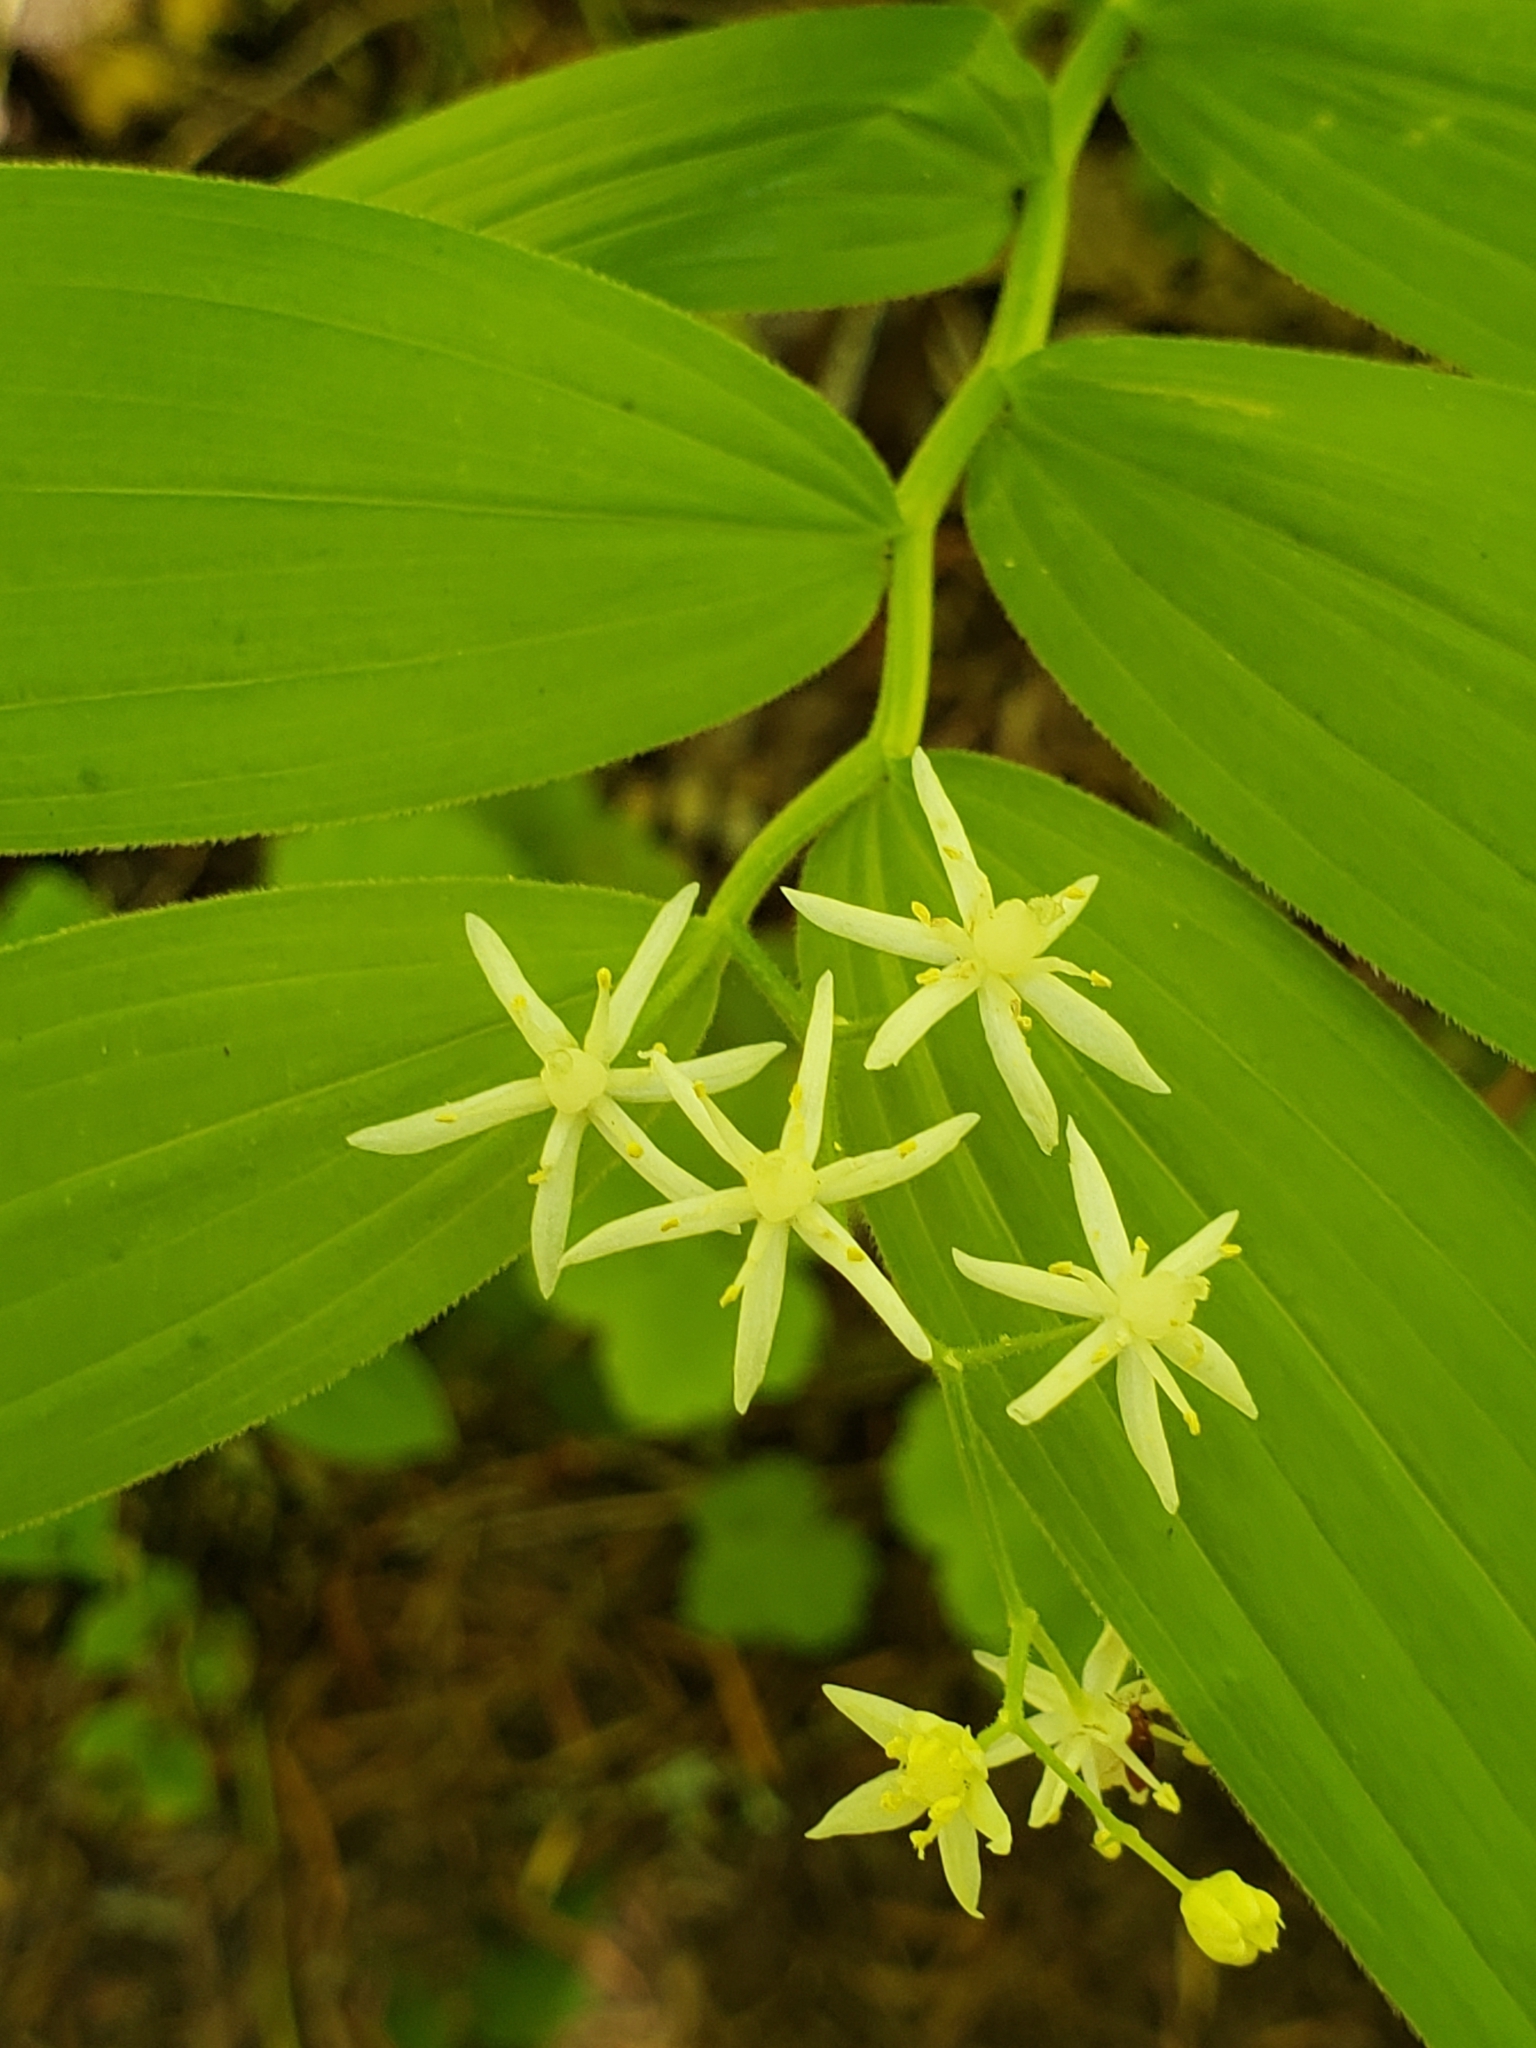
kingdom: Plantae
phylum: Tracheophyta
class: Liliopsida
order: Asparagales
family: Asparagaceae
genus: Maianthemum
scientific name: Maianthemum stellatum
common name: Little false solomon's seal
